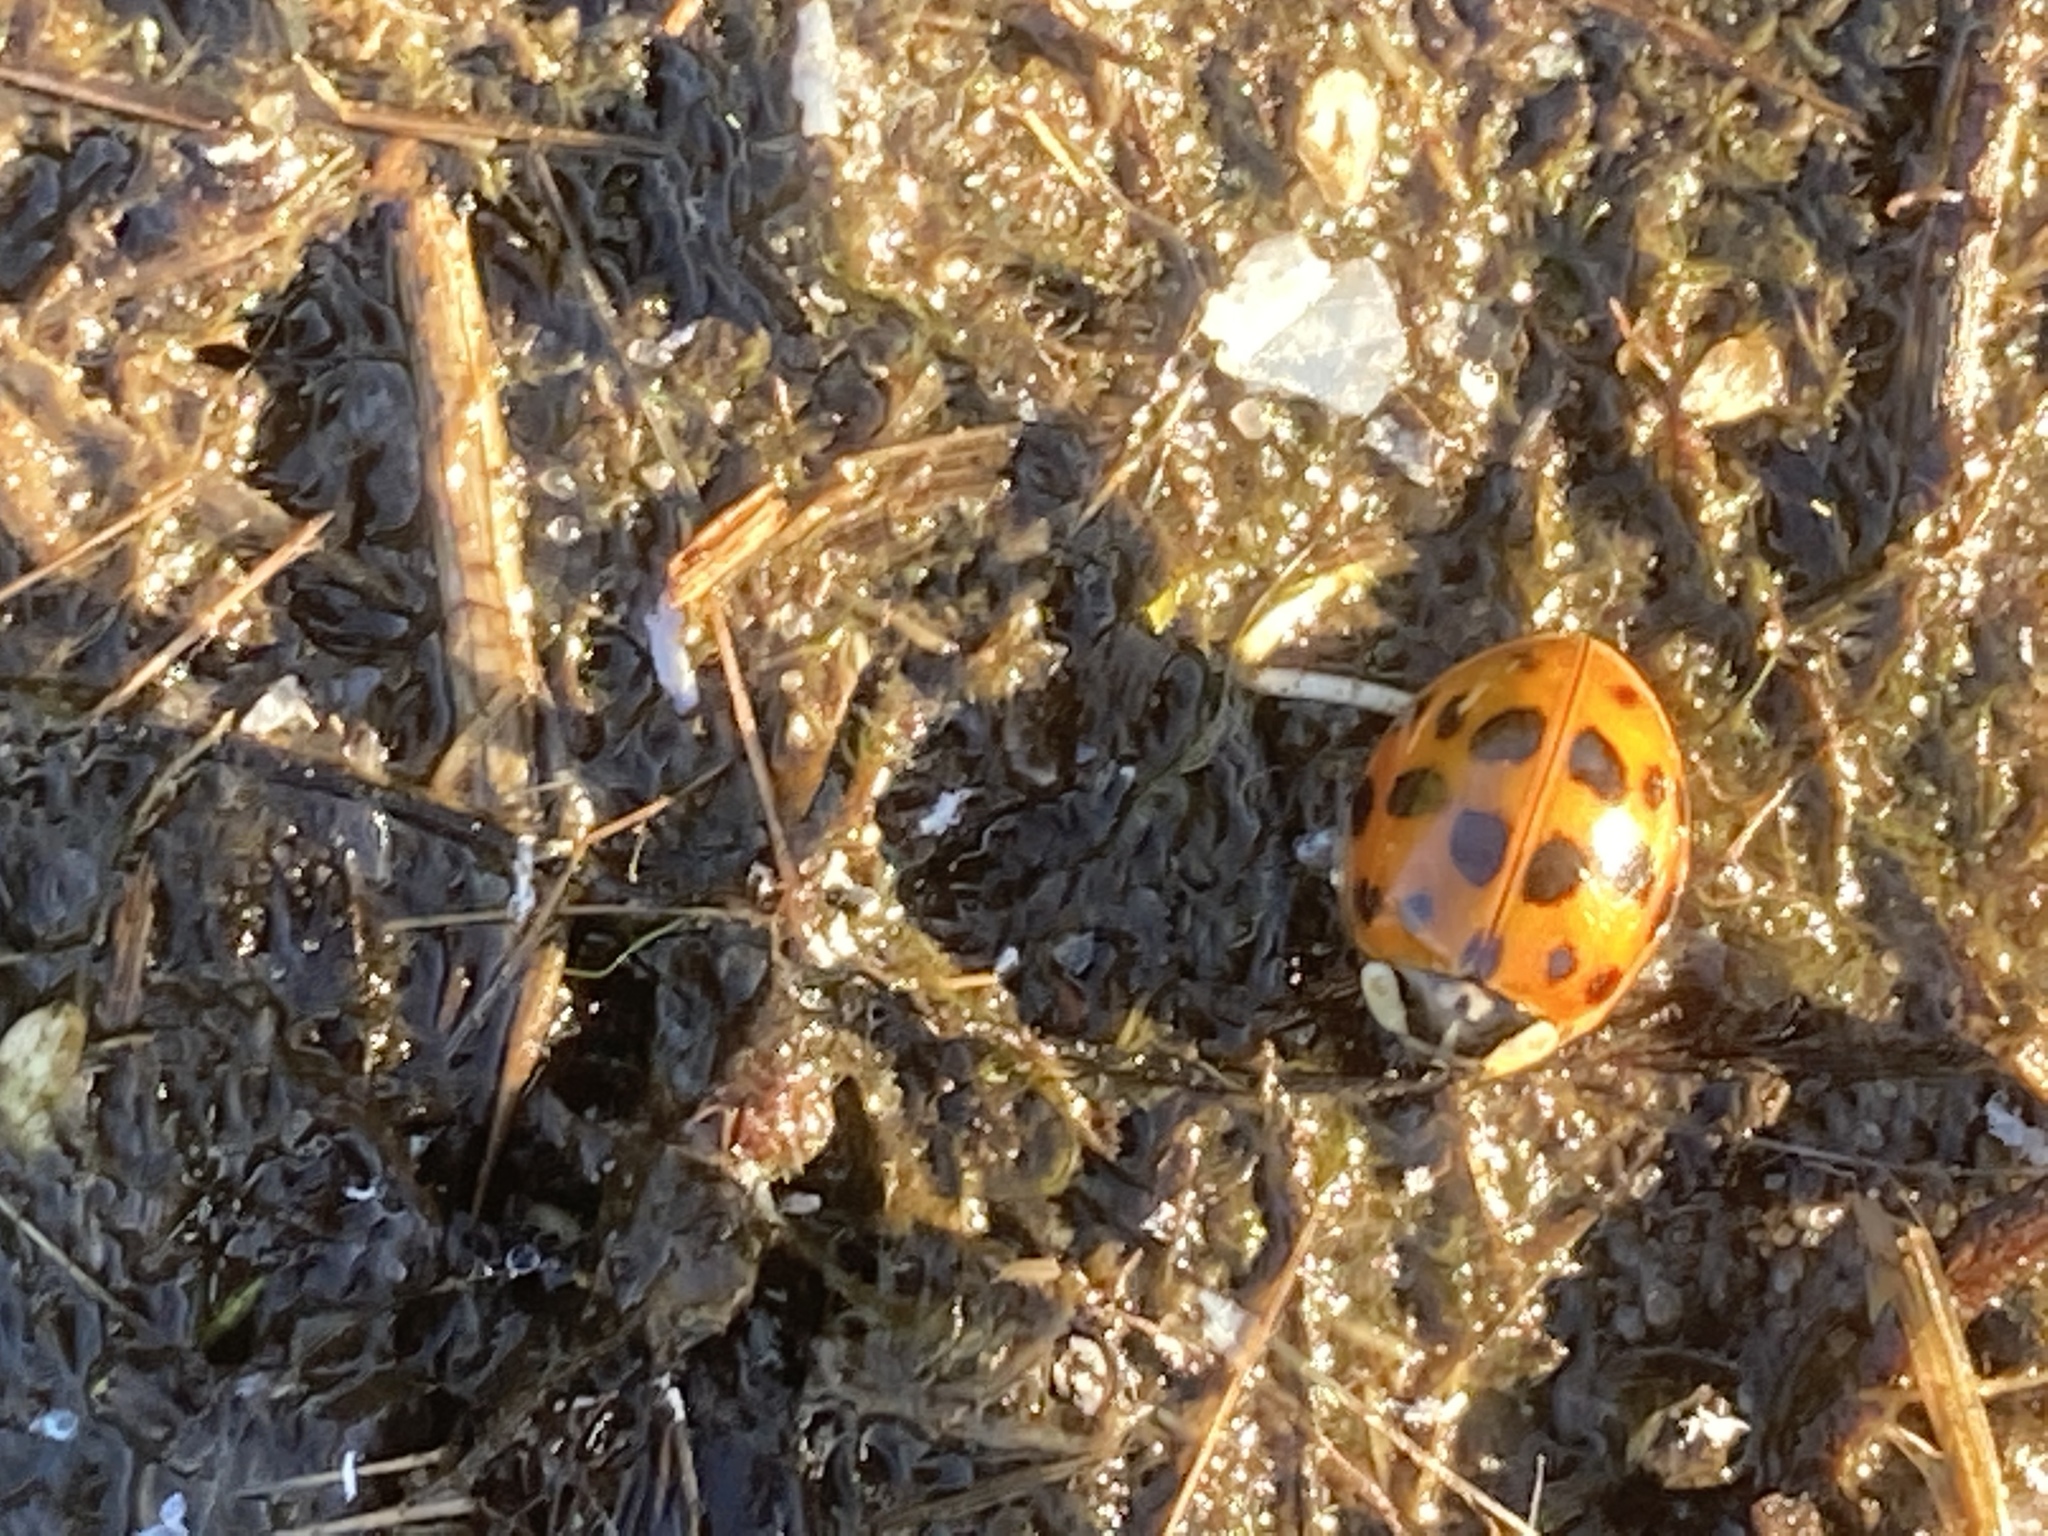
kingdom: Animalia
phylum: Arthropoda
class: Insecta
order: Coleoptera
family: Coccinellidae
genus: Harmonia
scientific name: Harmonia axyridis
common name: Harlequin ladybird
